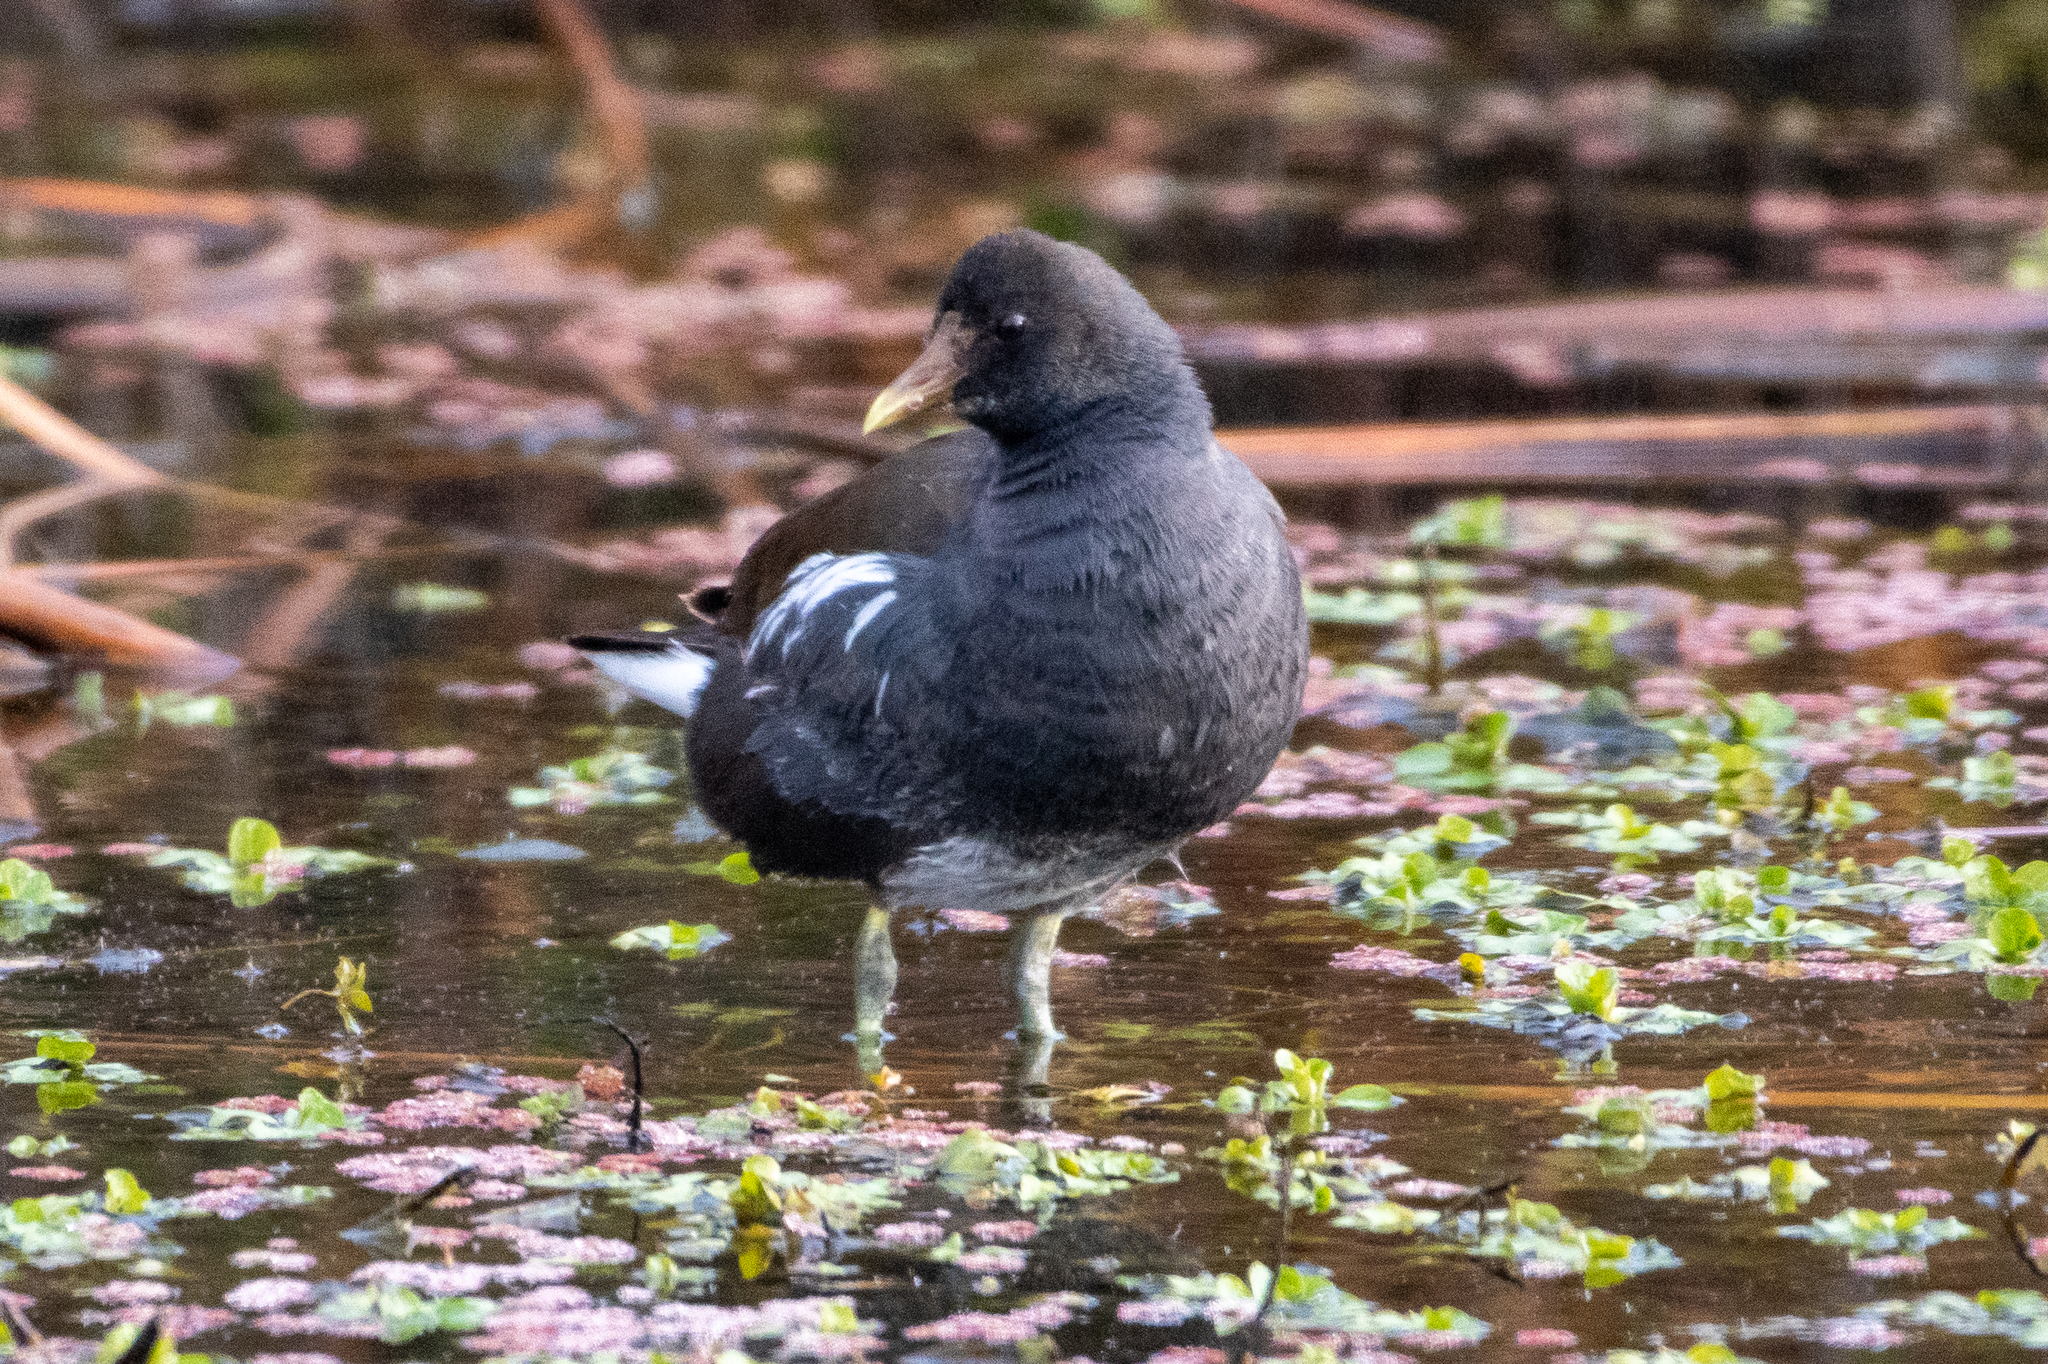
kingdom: Animalia
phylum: Chordata
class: Aves
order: Gruiformes
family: Rallidae
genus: Gallinula
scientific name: Gallinula chloropus
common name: Common moorhen
